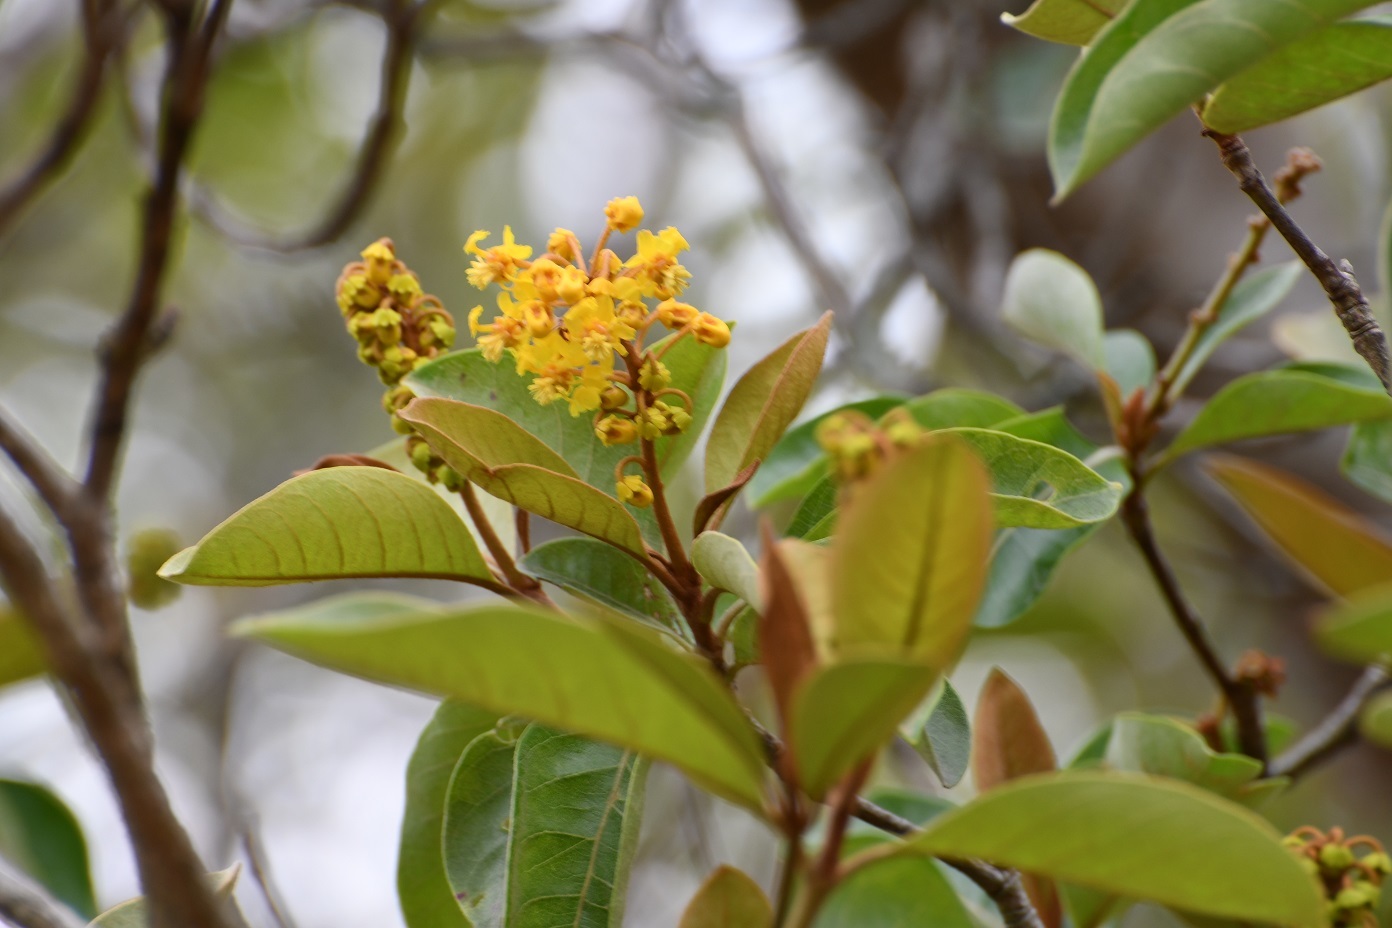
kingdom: Plantae
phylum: Tracheophyta
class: Magnoliopsida
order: Malpighiales
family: Malpighiaceae
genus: Byrsonima
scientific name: Byrsonima crassifolia
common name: Golden spoon
